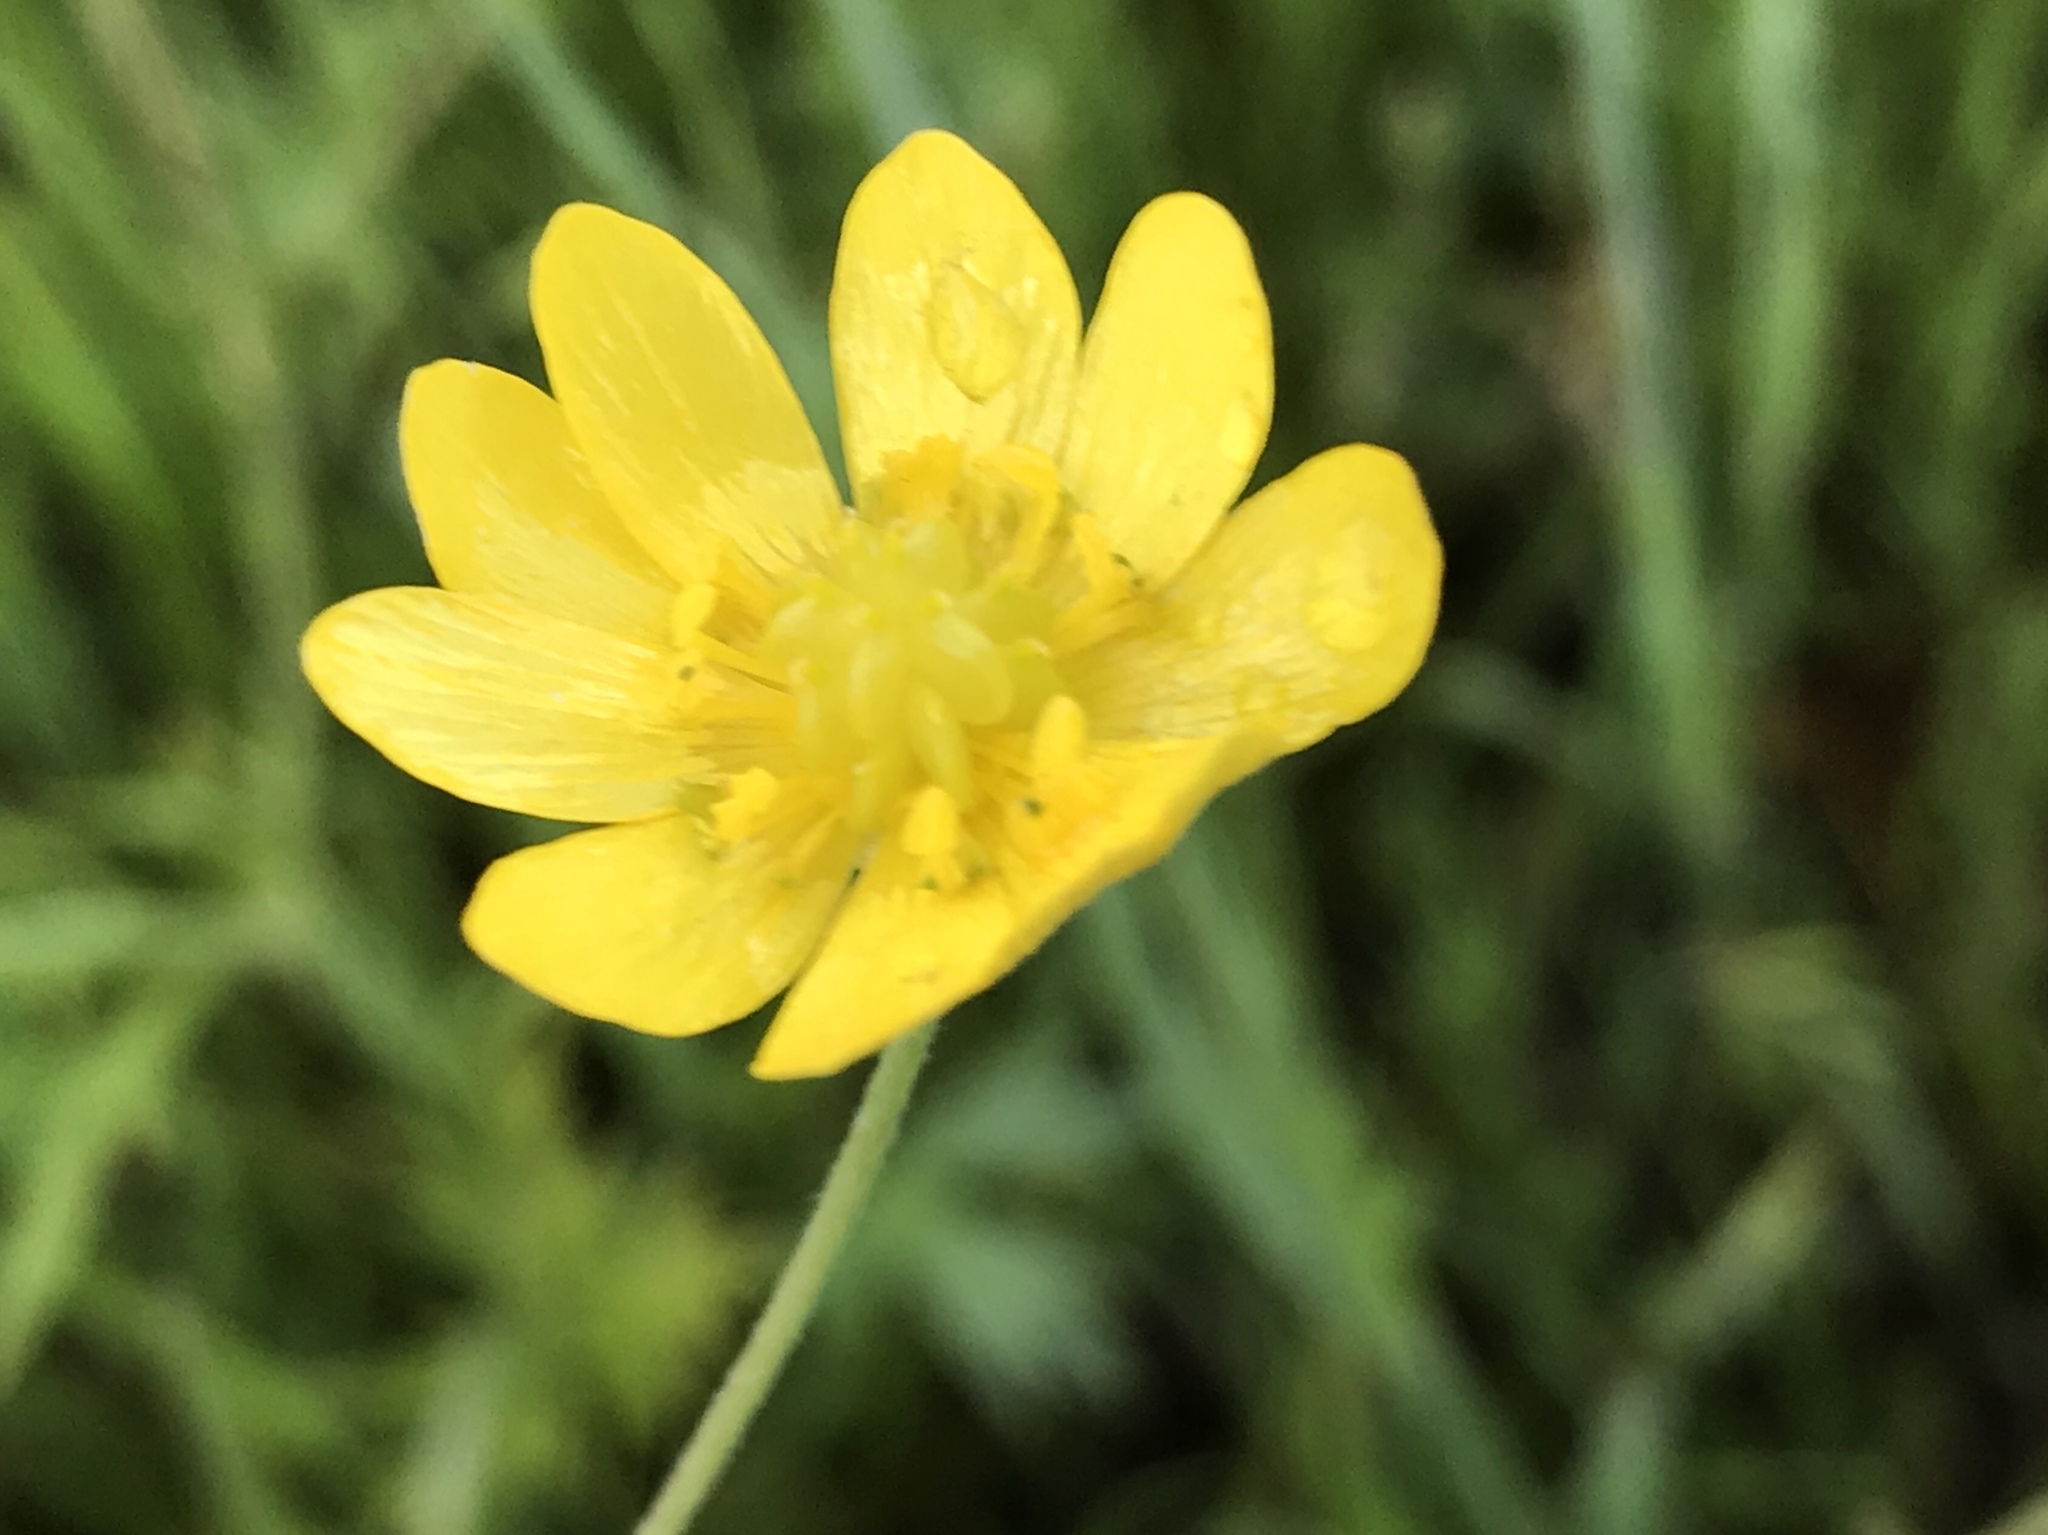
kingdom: Plantae
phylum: Tracheophyta
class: Magnoliopsida
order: Ranunculales
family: Ranunculaceae
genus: Ranunculus
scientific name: Ranunculus californicus
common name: California buttercup
